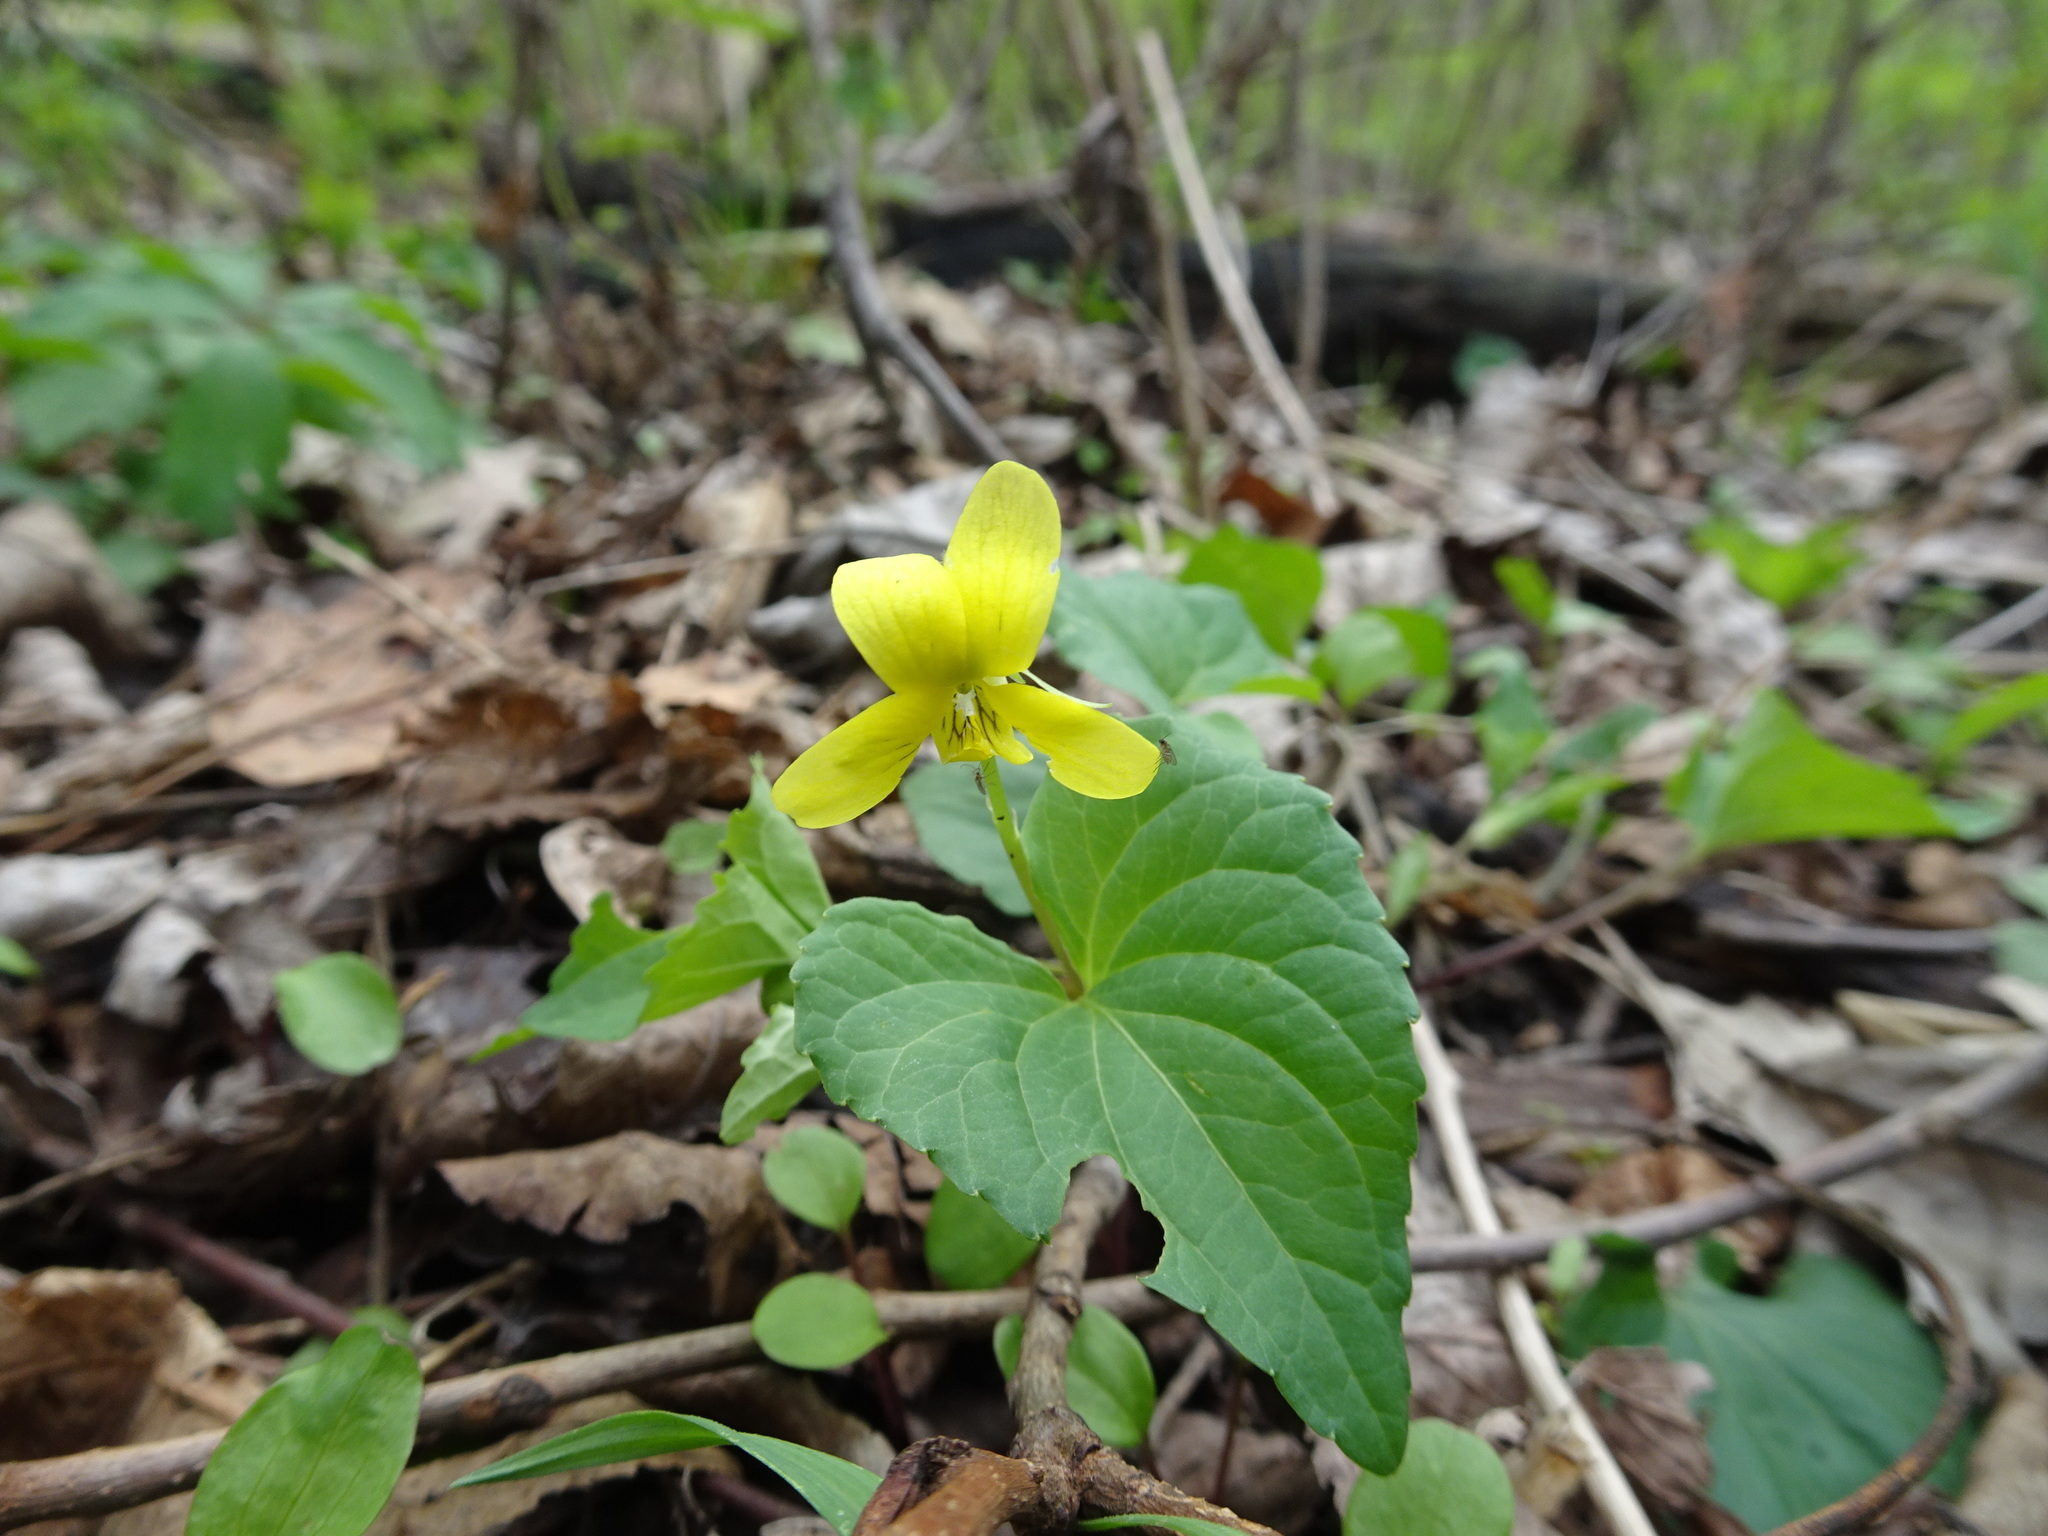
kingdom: Plantae
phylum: Tracheophyta
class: Magnoliopsida
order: Malpighiales
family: Violaceae
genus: Viola
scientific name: Viola eriocarpa
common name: Smooth yellow violet
